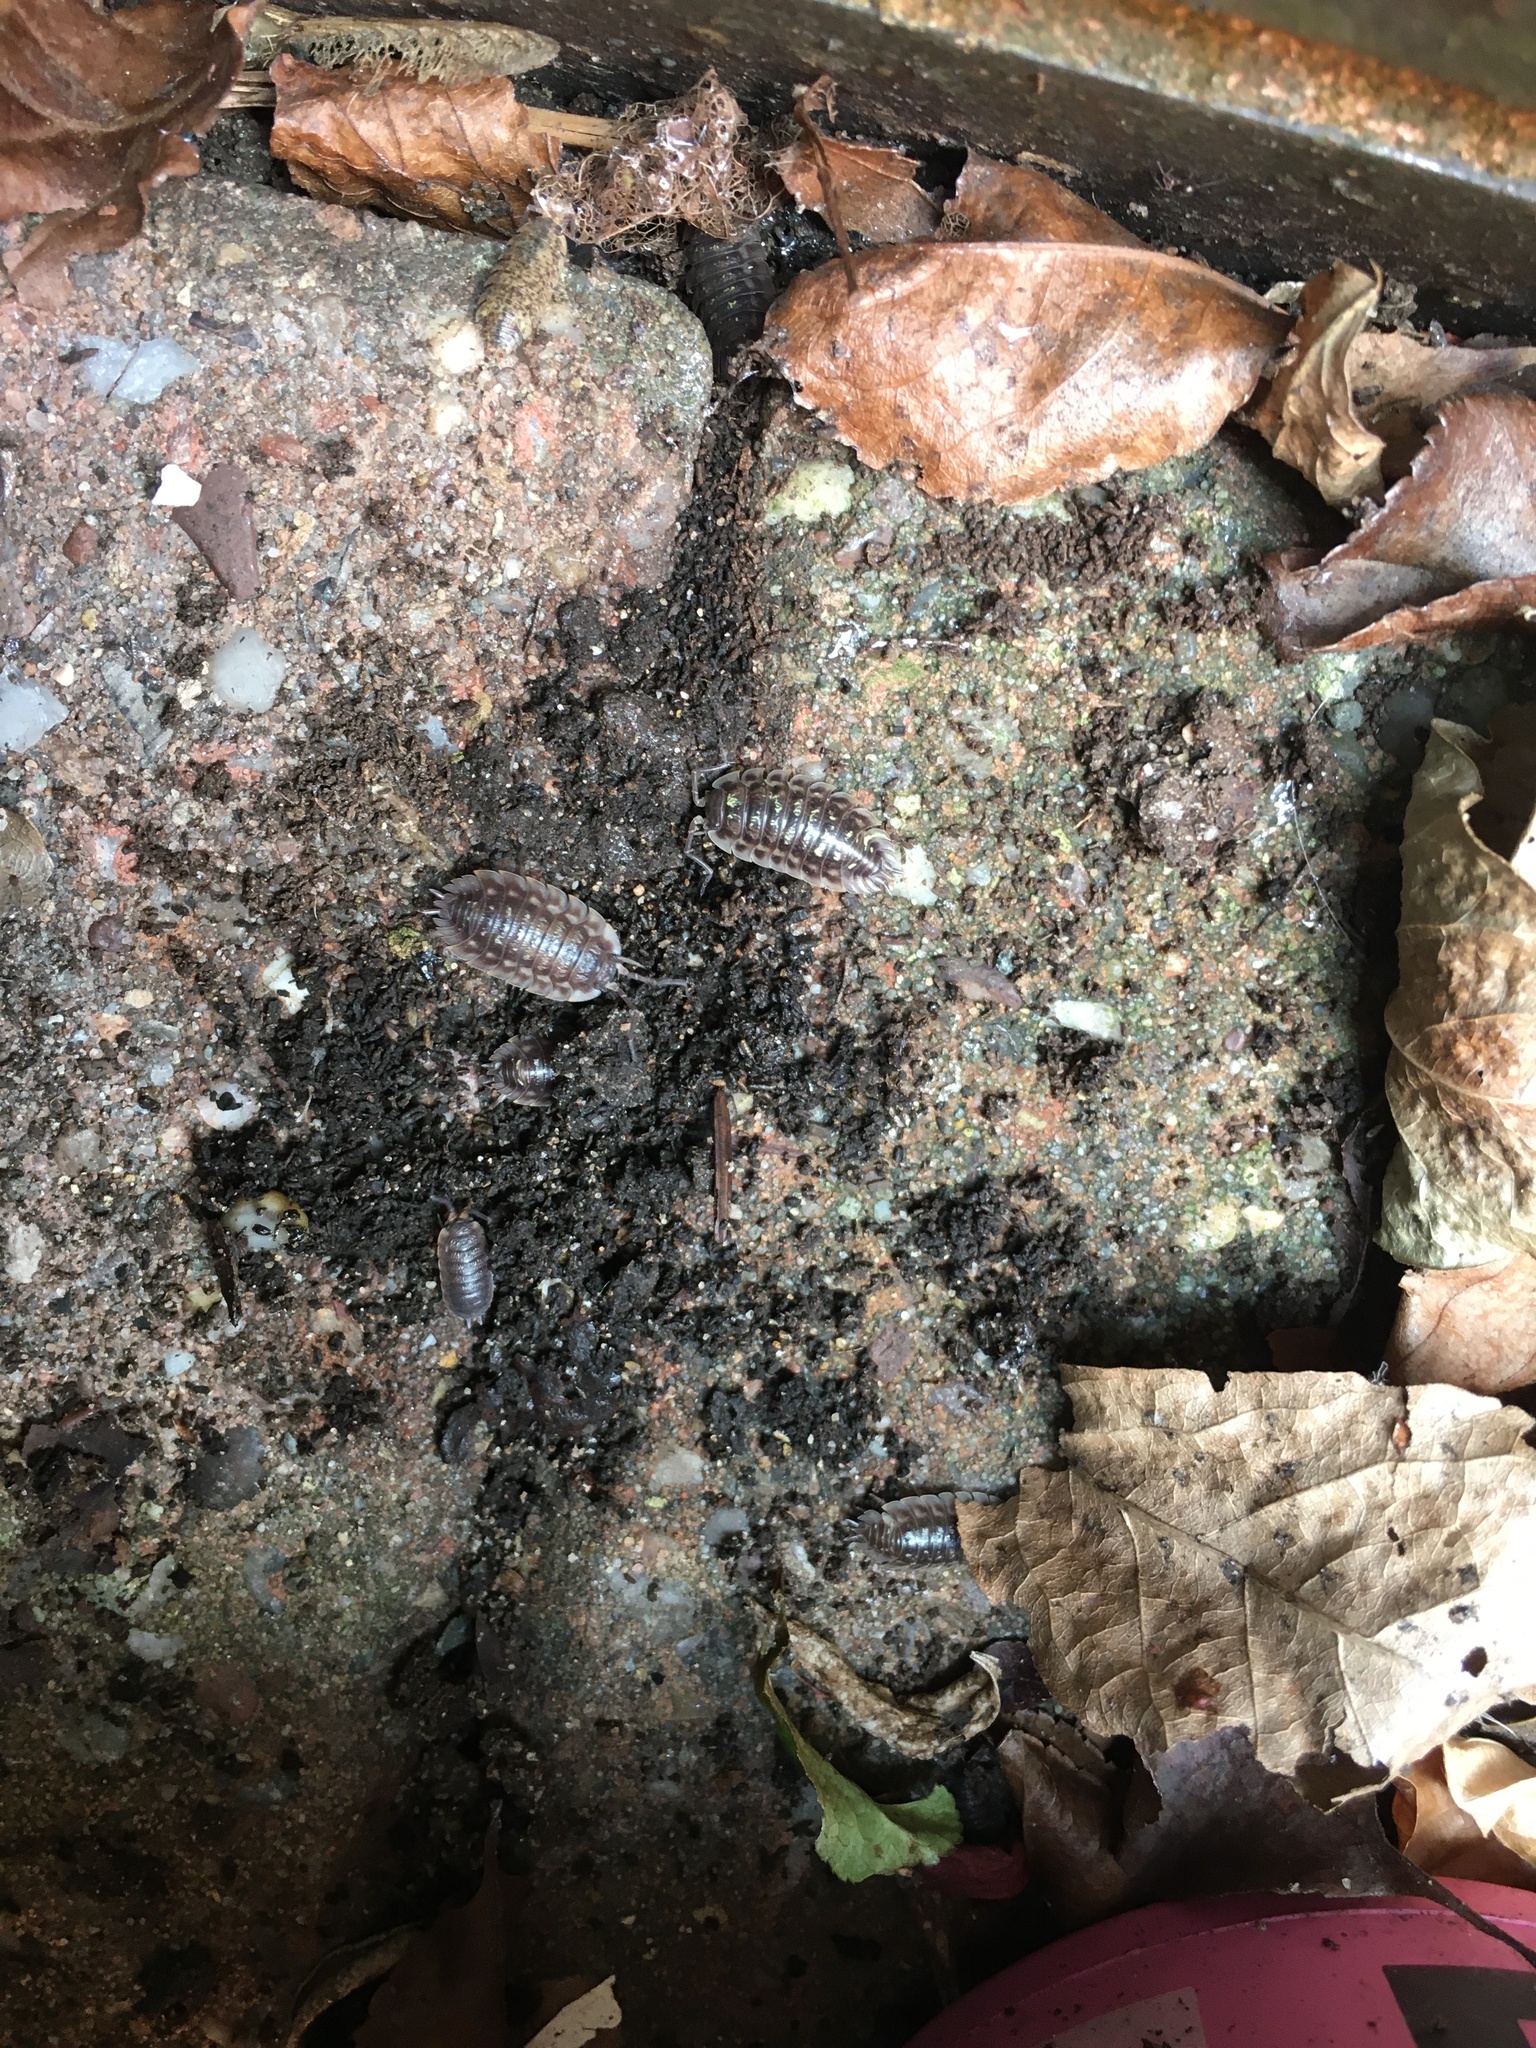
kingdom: Animalia
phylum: Arthropoda
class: Malacostraca
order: Isopoda
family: Oniscidae
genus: Oniscus
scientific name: Oniscus asellus
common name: Common shiny woodlouse
